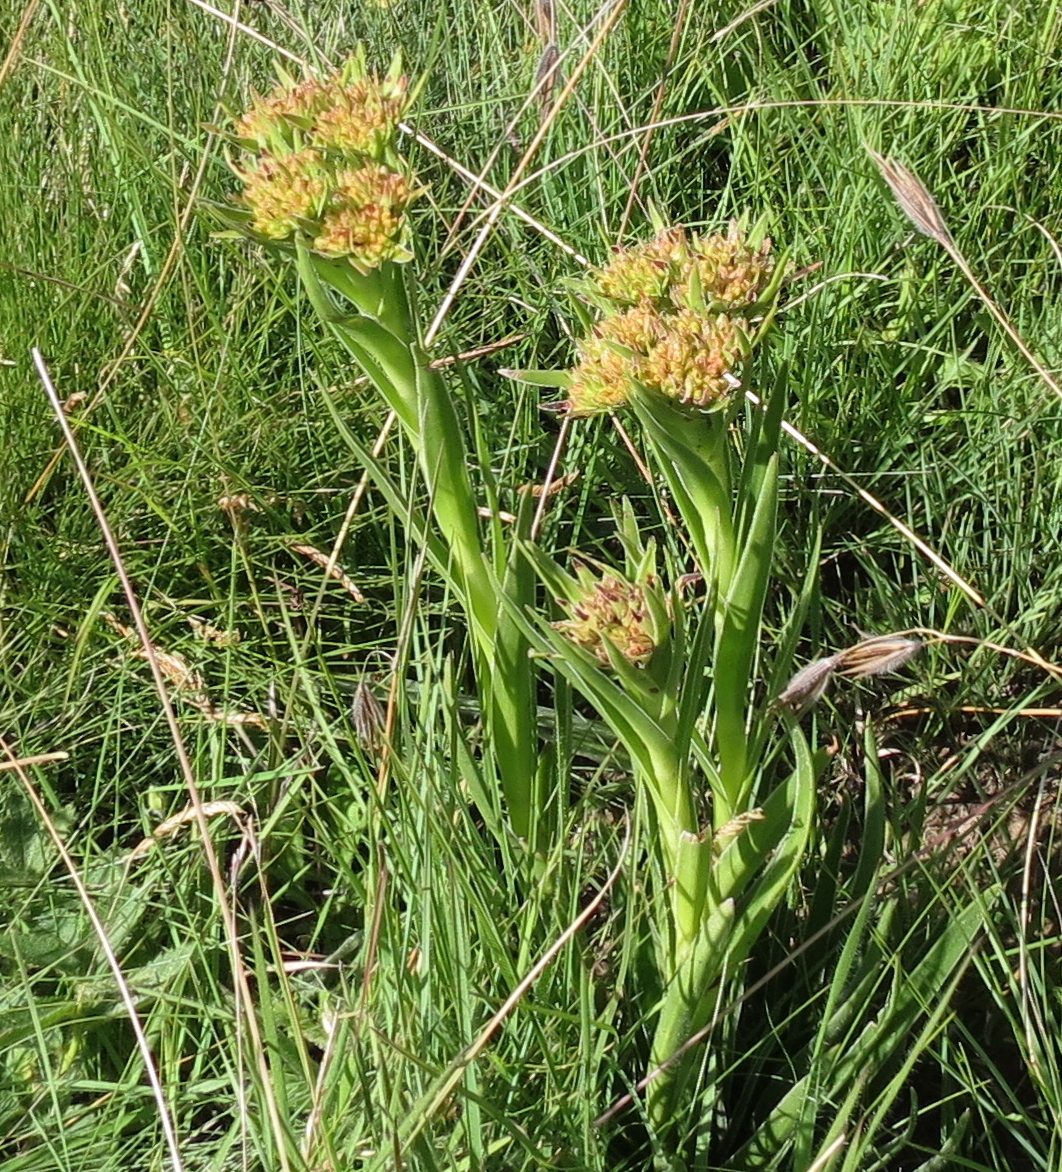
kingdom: Plantae
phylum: Tracheophyta
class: Magnoliopsida
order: Saxifragales
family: Crassulaceae
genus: Crassula
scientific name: Crassula vaginata
